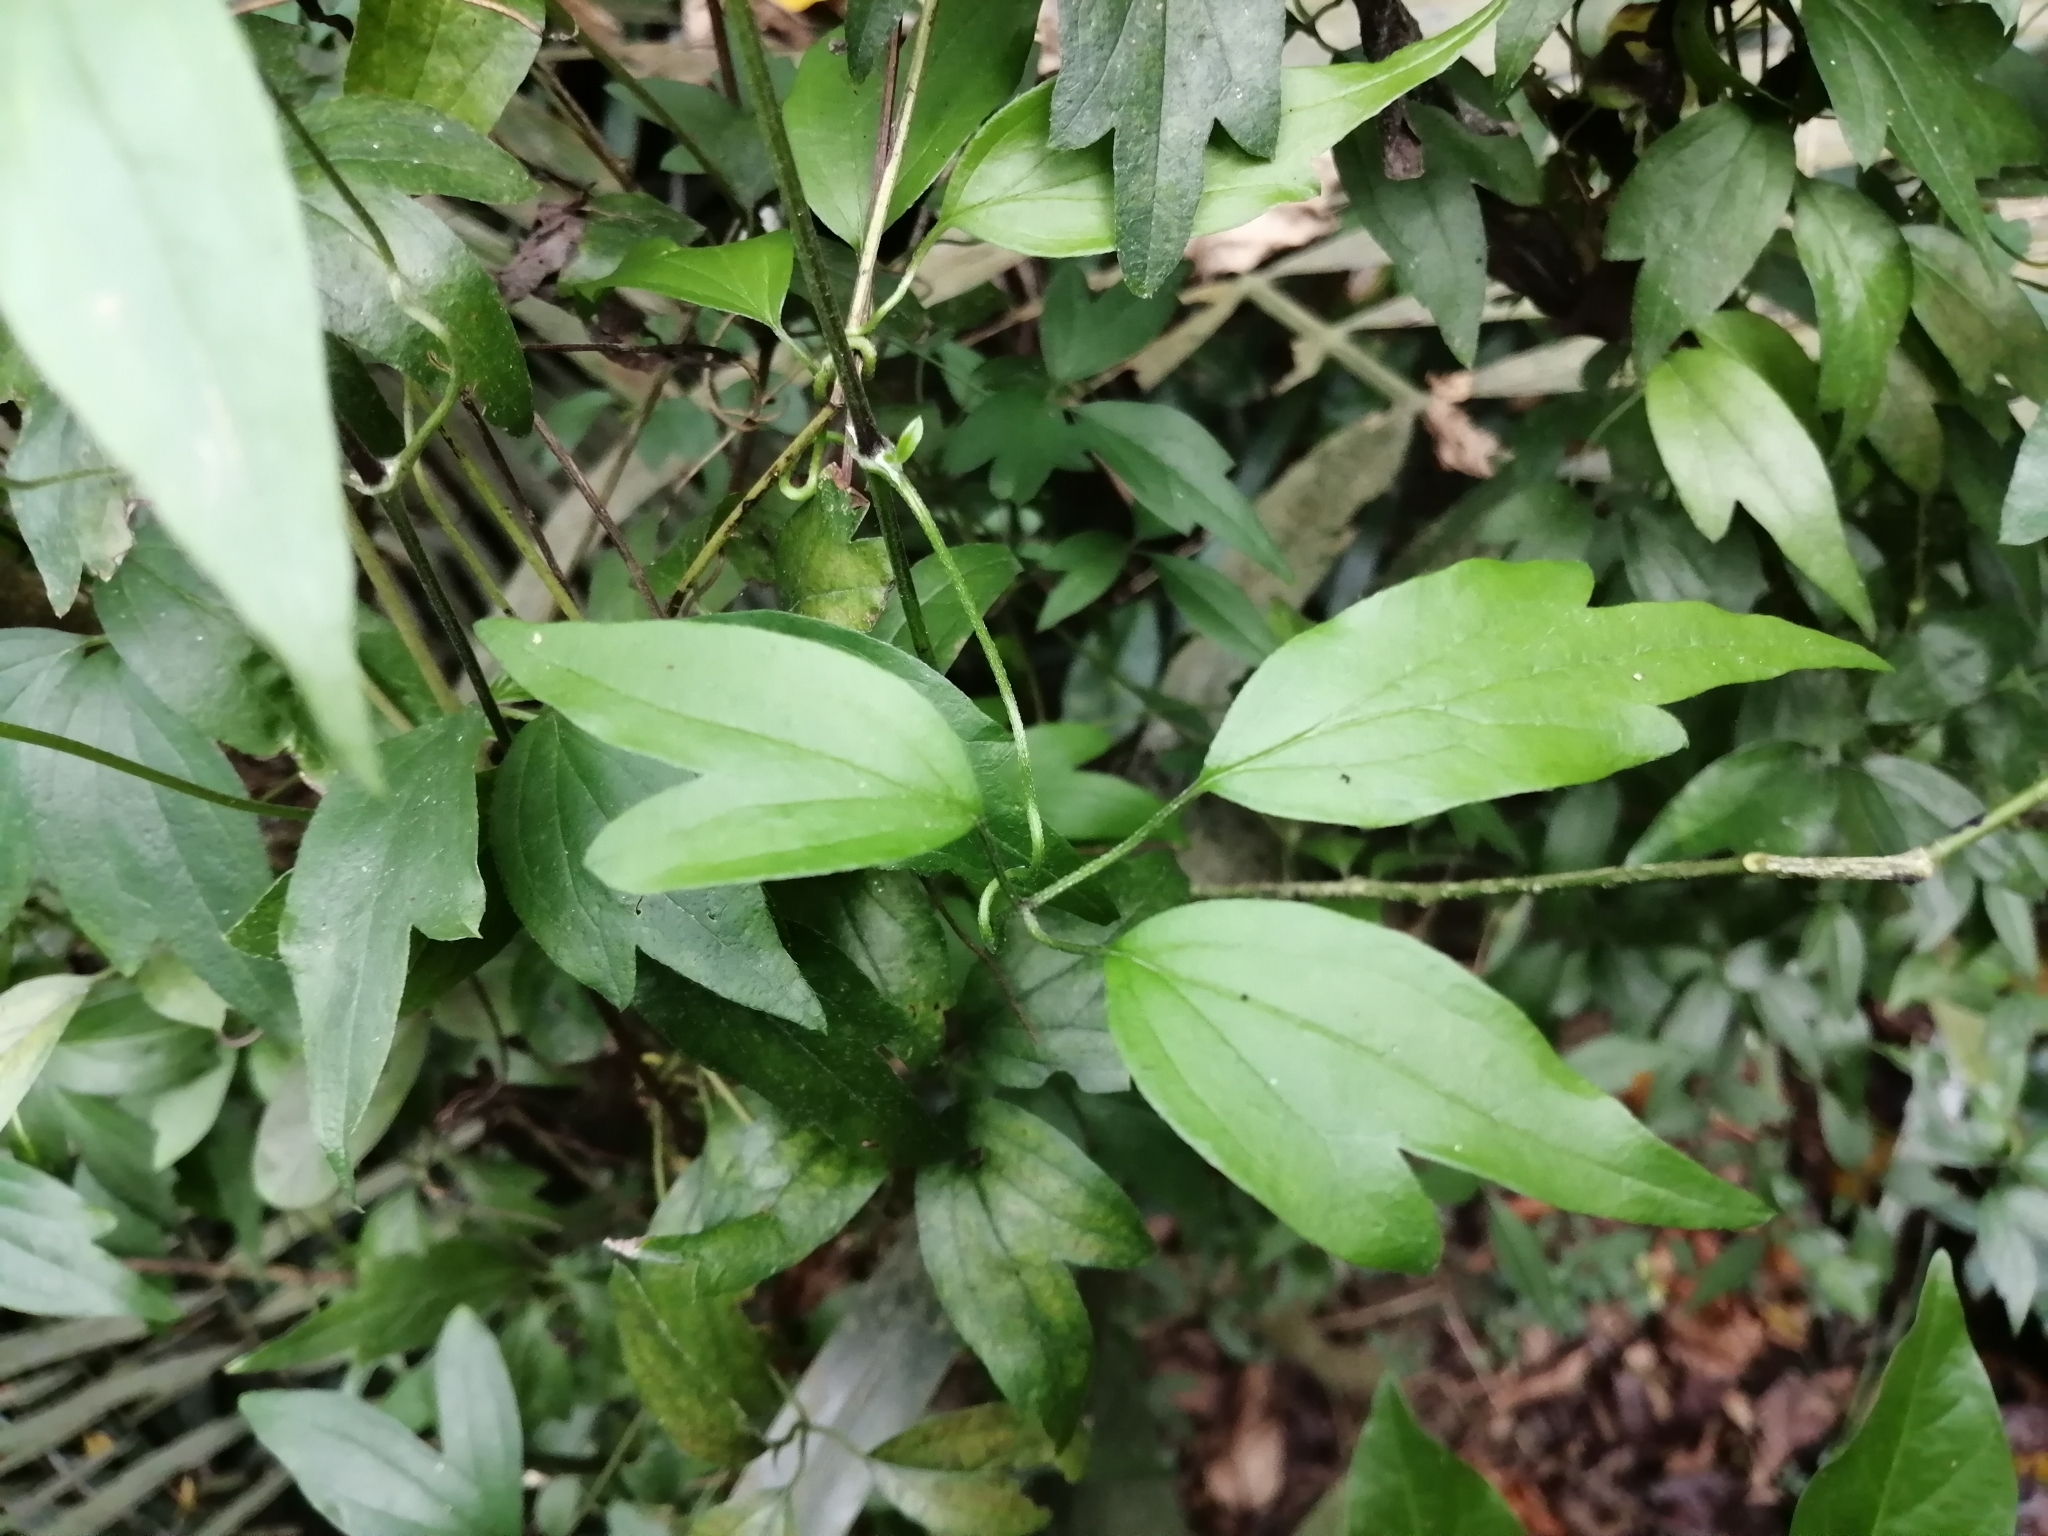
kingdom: Plantae
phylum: Tracheophyta
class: Magnoliopsida
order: Ranunculales
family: Ranunculaceae
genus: Clematis
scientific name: Clematis formosana
